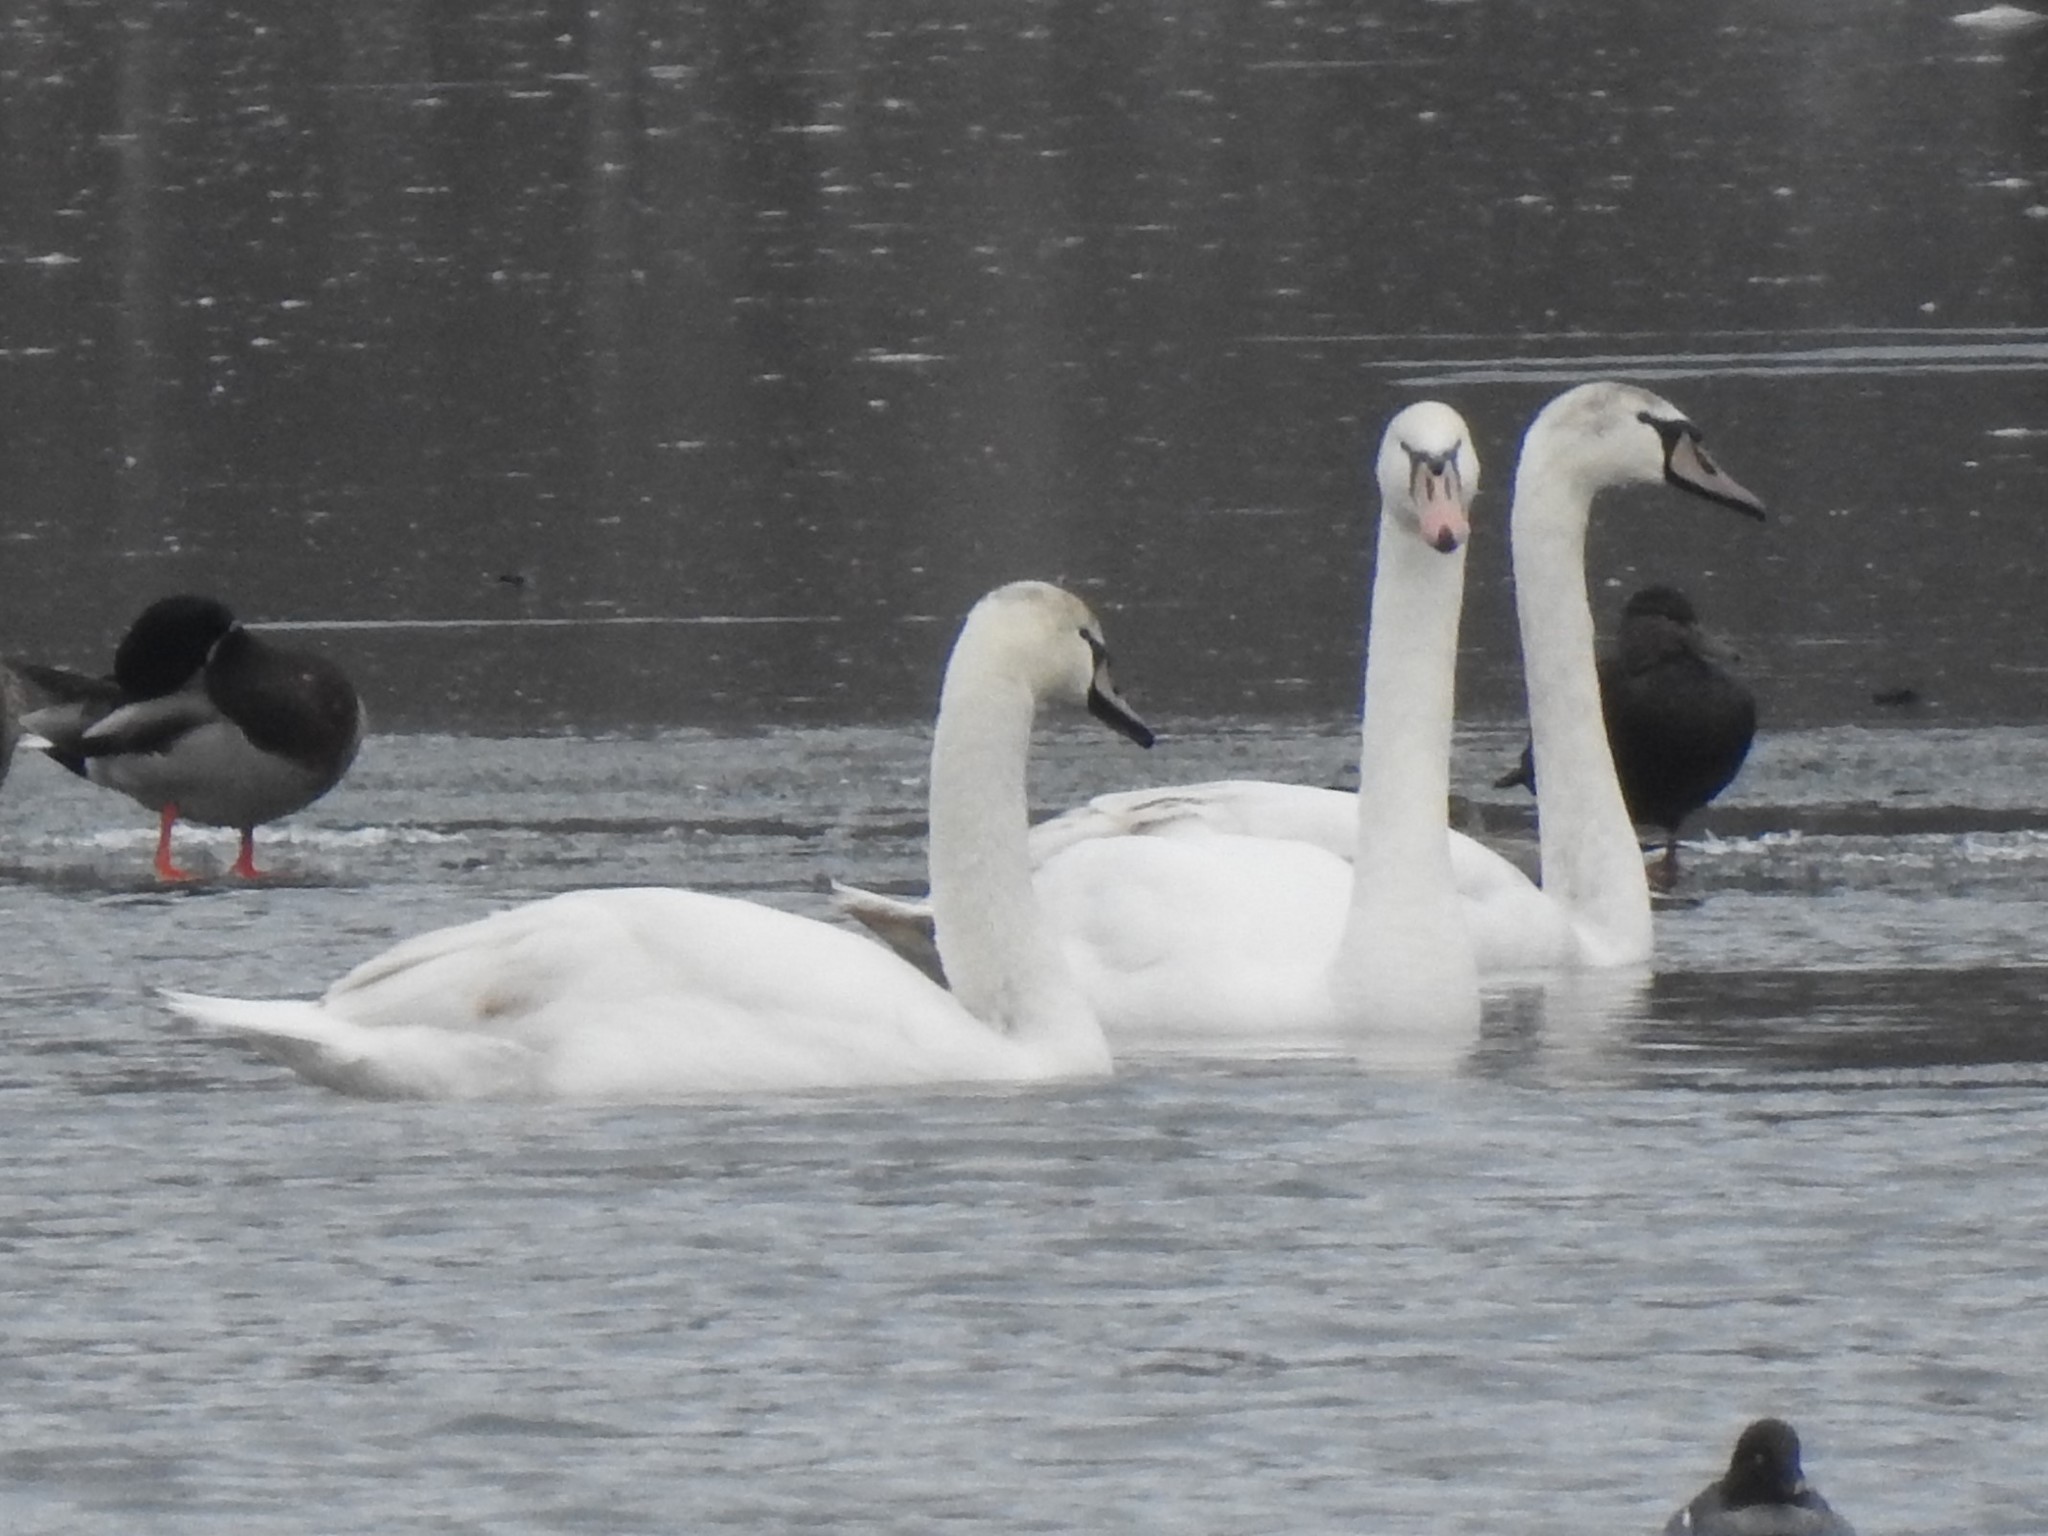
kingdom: Animalia
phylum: Chordata
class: Aves
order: Anseriformes
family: Anatidae
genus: Cygnus
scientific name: Cygnus olor
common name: Mute swan
